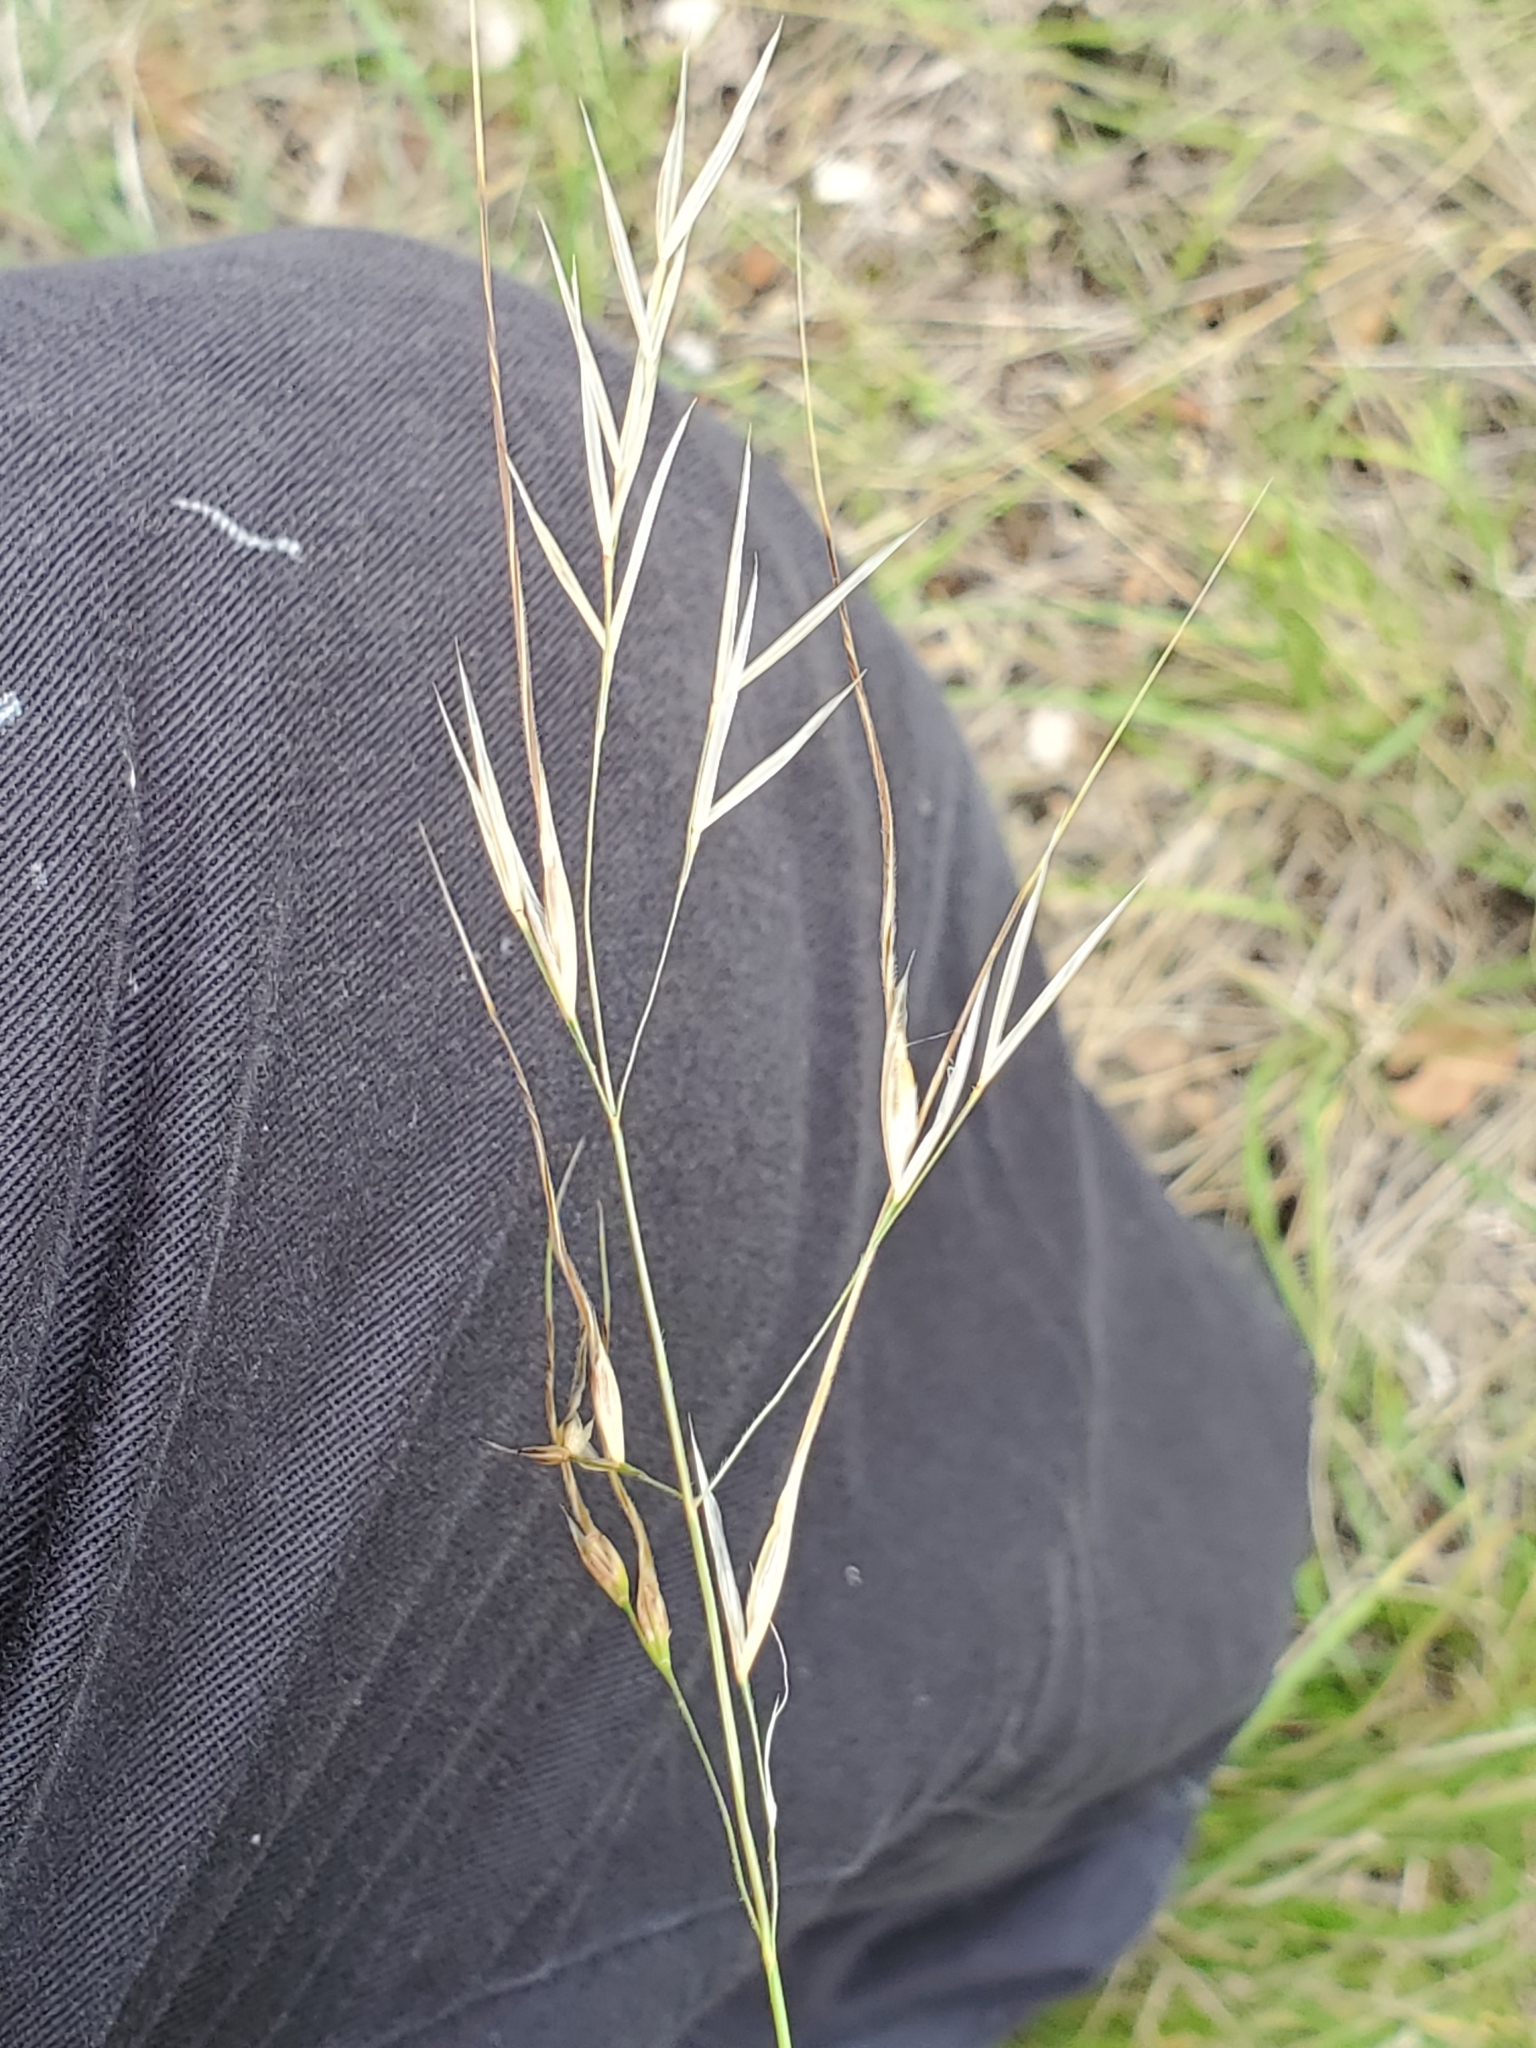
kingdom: Plantae
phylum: Tracheophyta
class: Liliopsida
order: Poales
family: Poaceae
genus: Nassella
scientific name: Nassella leucotricha
